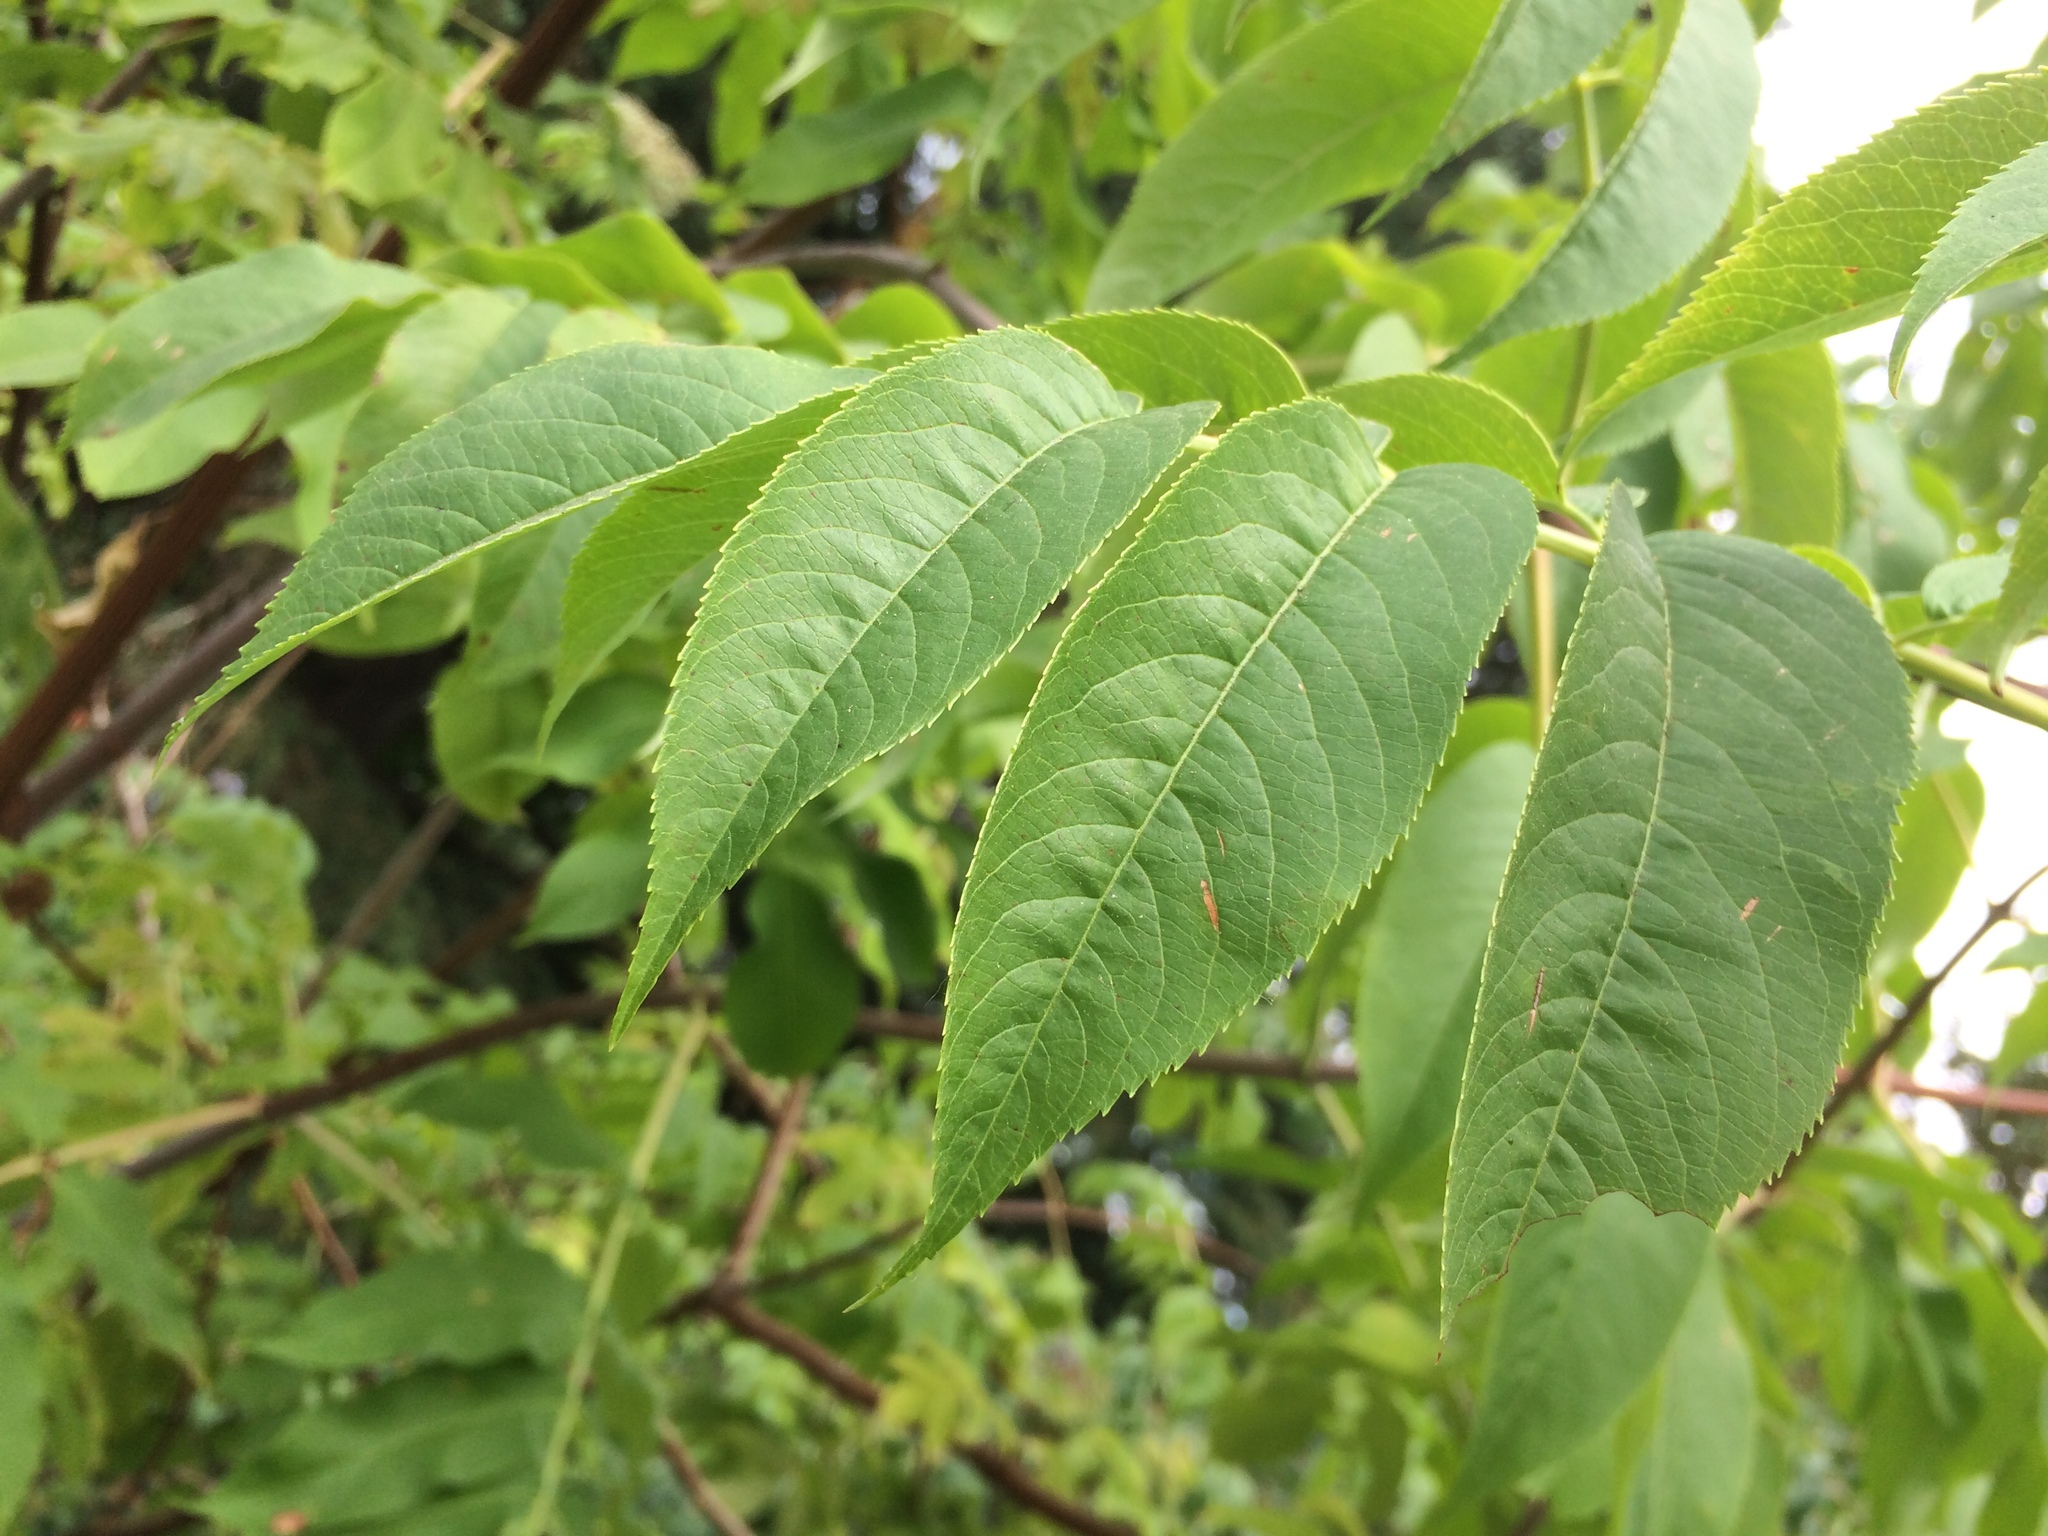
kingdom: Plantae
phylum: Tracheophyta
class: Magnoliopsida
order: Dipsacales
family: Viburnaceae
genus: Sambucus
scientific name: Sambucus cerulea
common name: Blue elder
